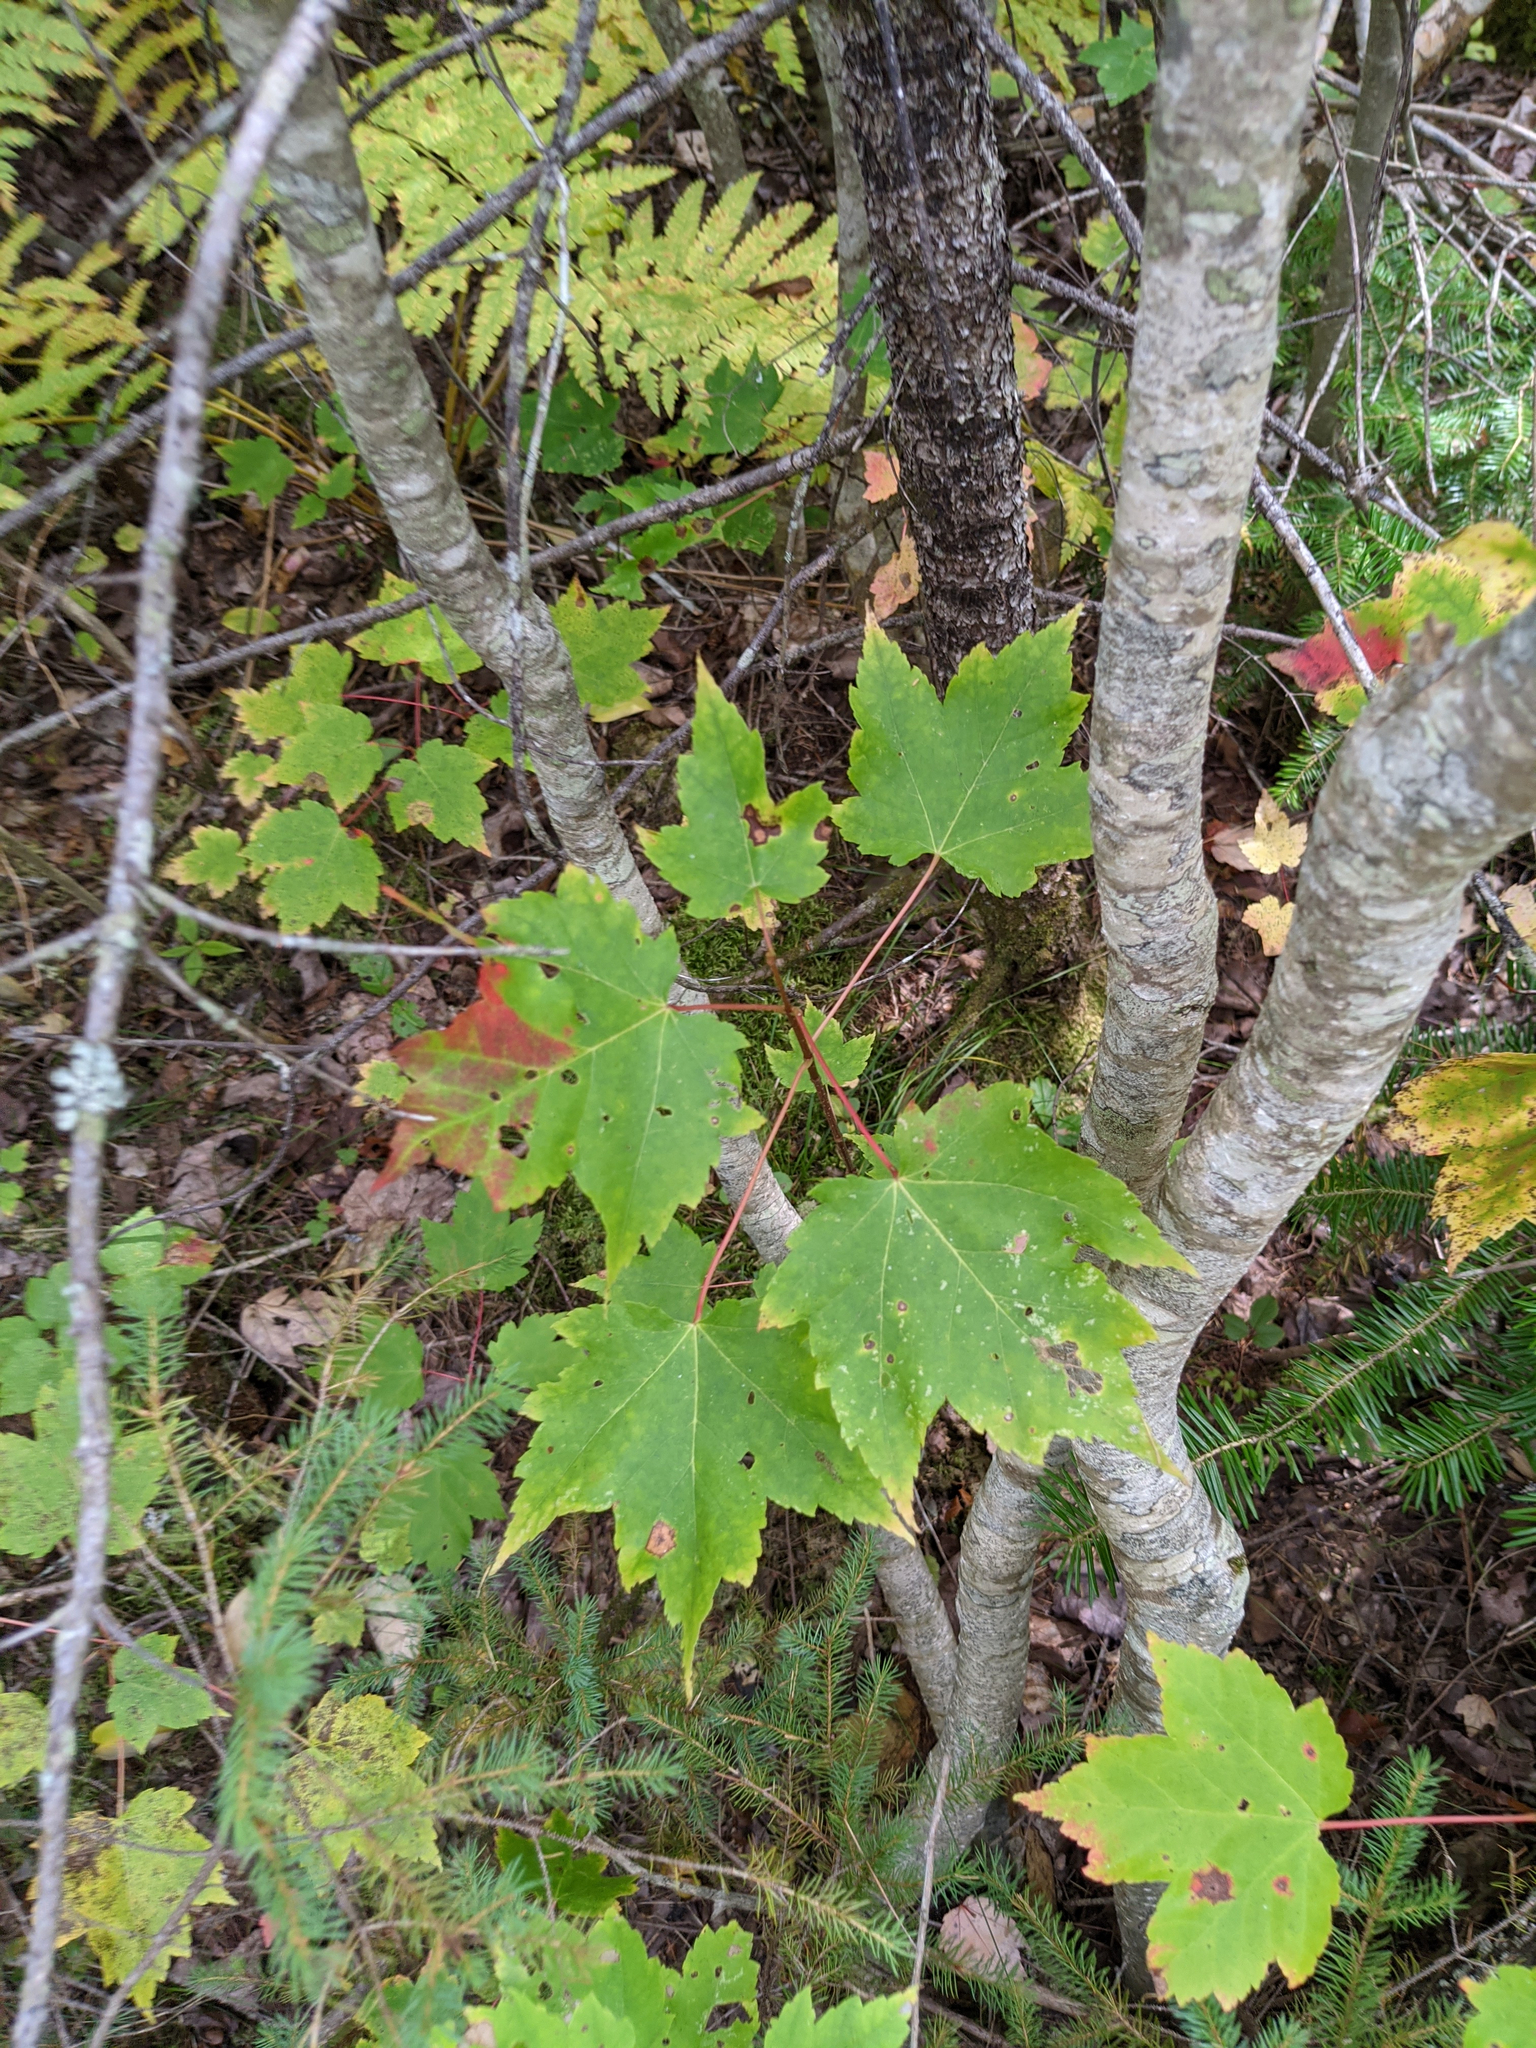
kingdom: Plantae
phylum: Tracheophyta
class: Magnoliopsida
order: Sapindales
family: Sapindaceae
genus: Acer
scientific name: Acer rubrum
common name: Red maple
